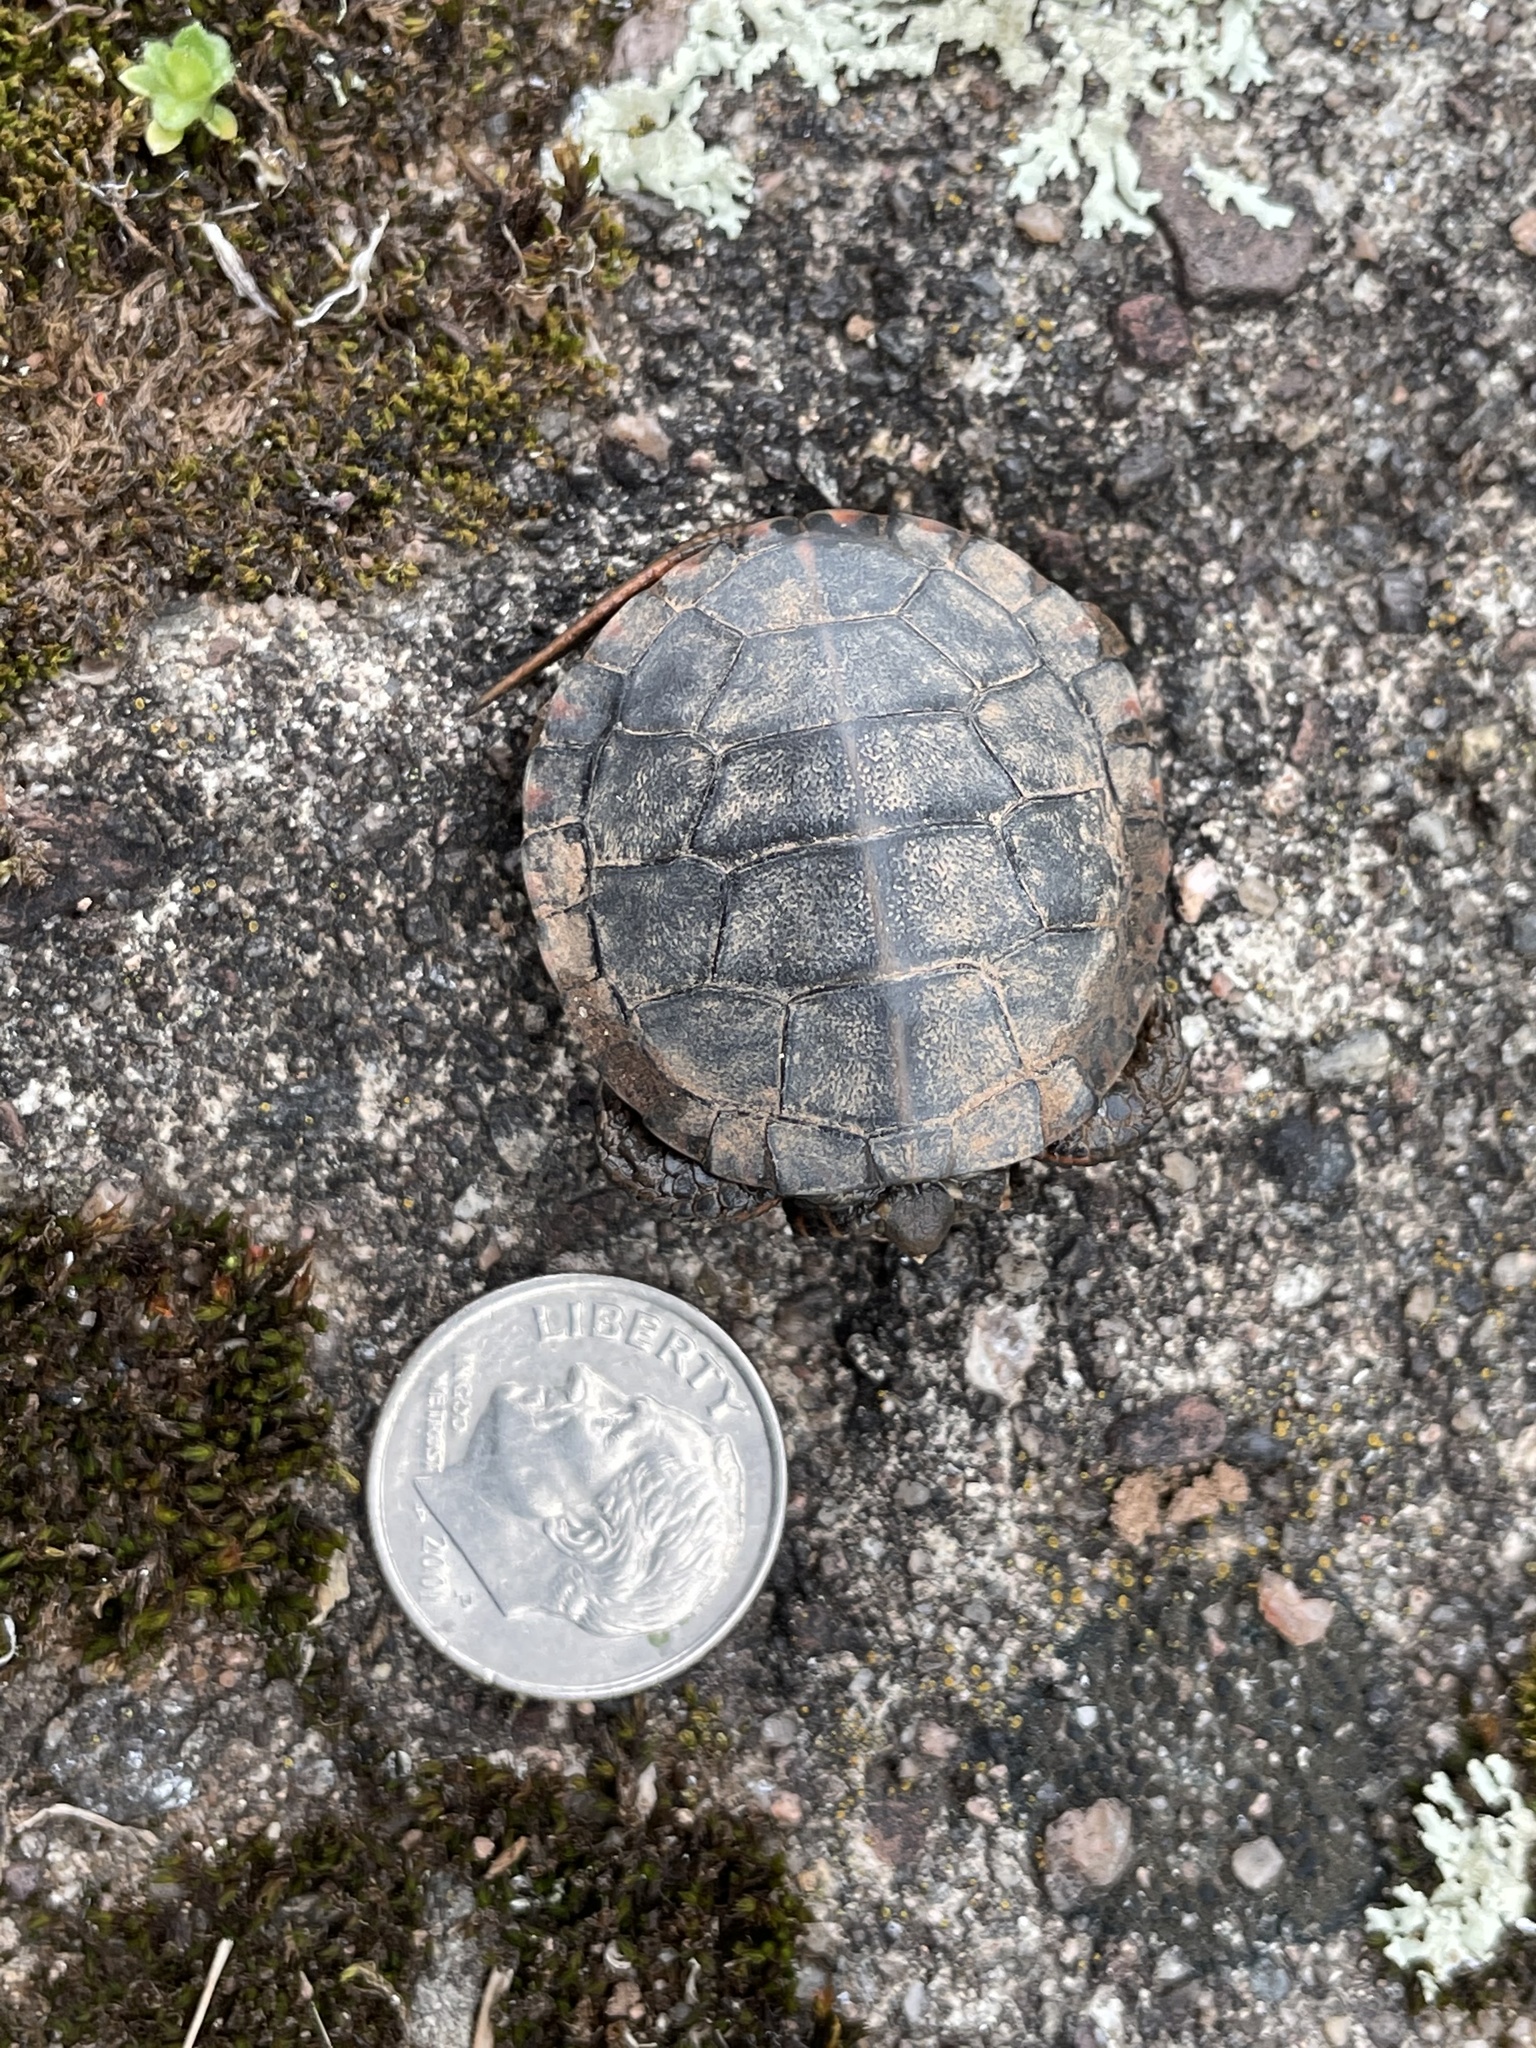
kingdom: Animalia
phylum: Chordata
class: Testudines
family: Emydidae
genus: Chrysemys
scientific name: Chrysemys picta
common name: Painted turtle
